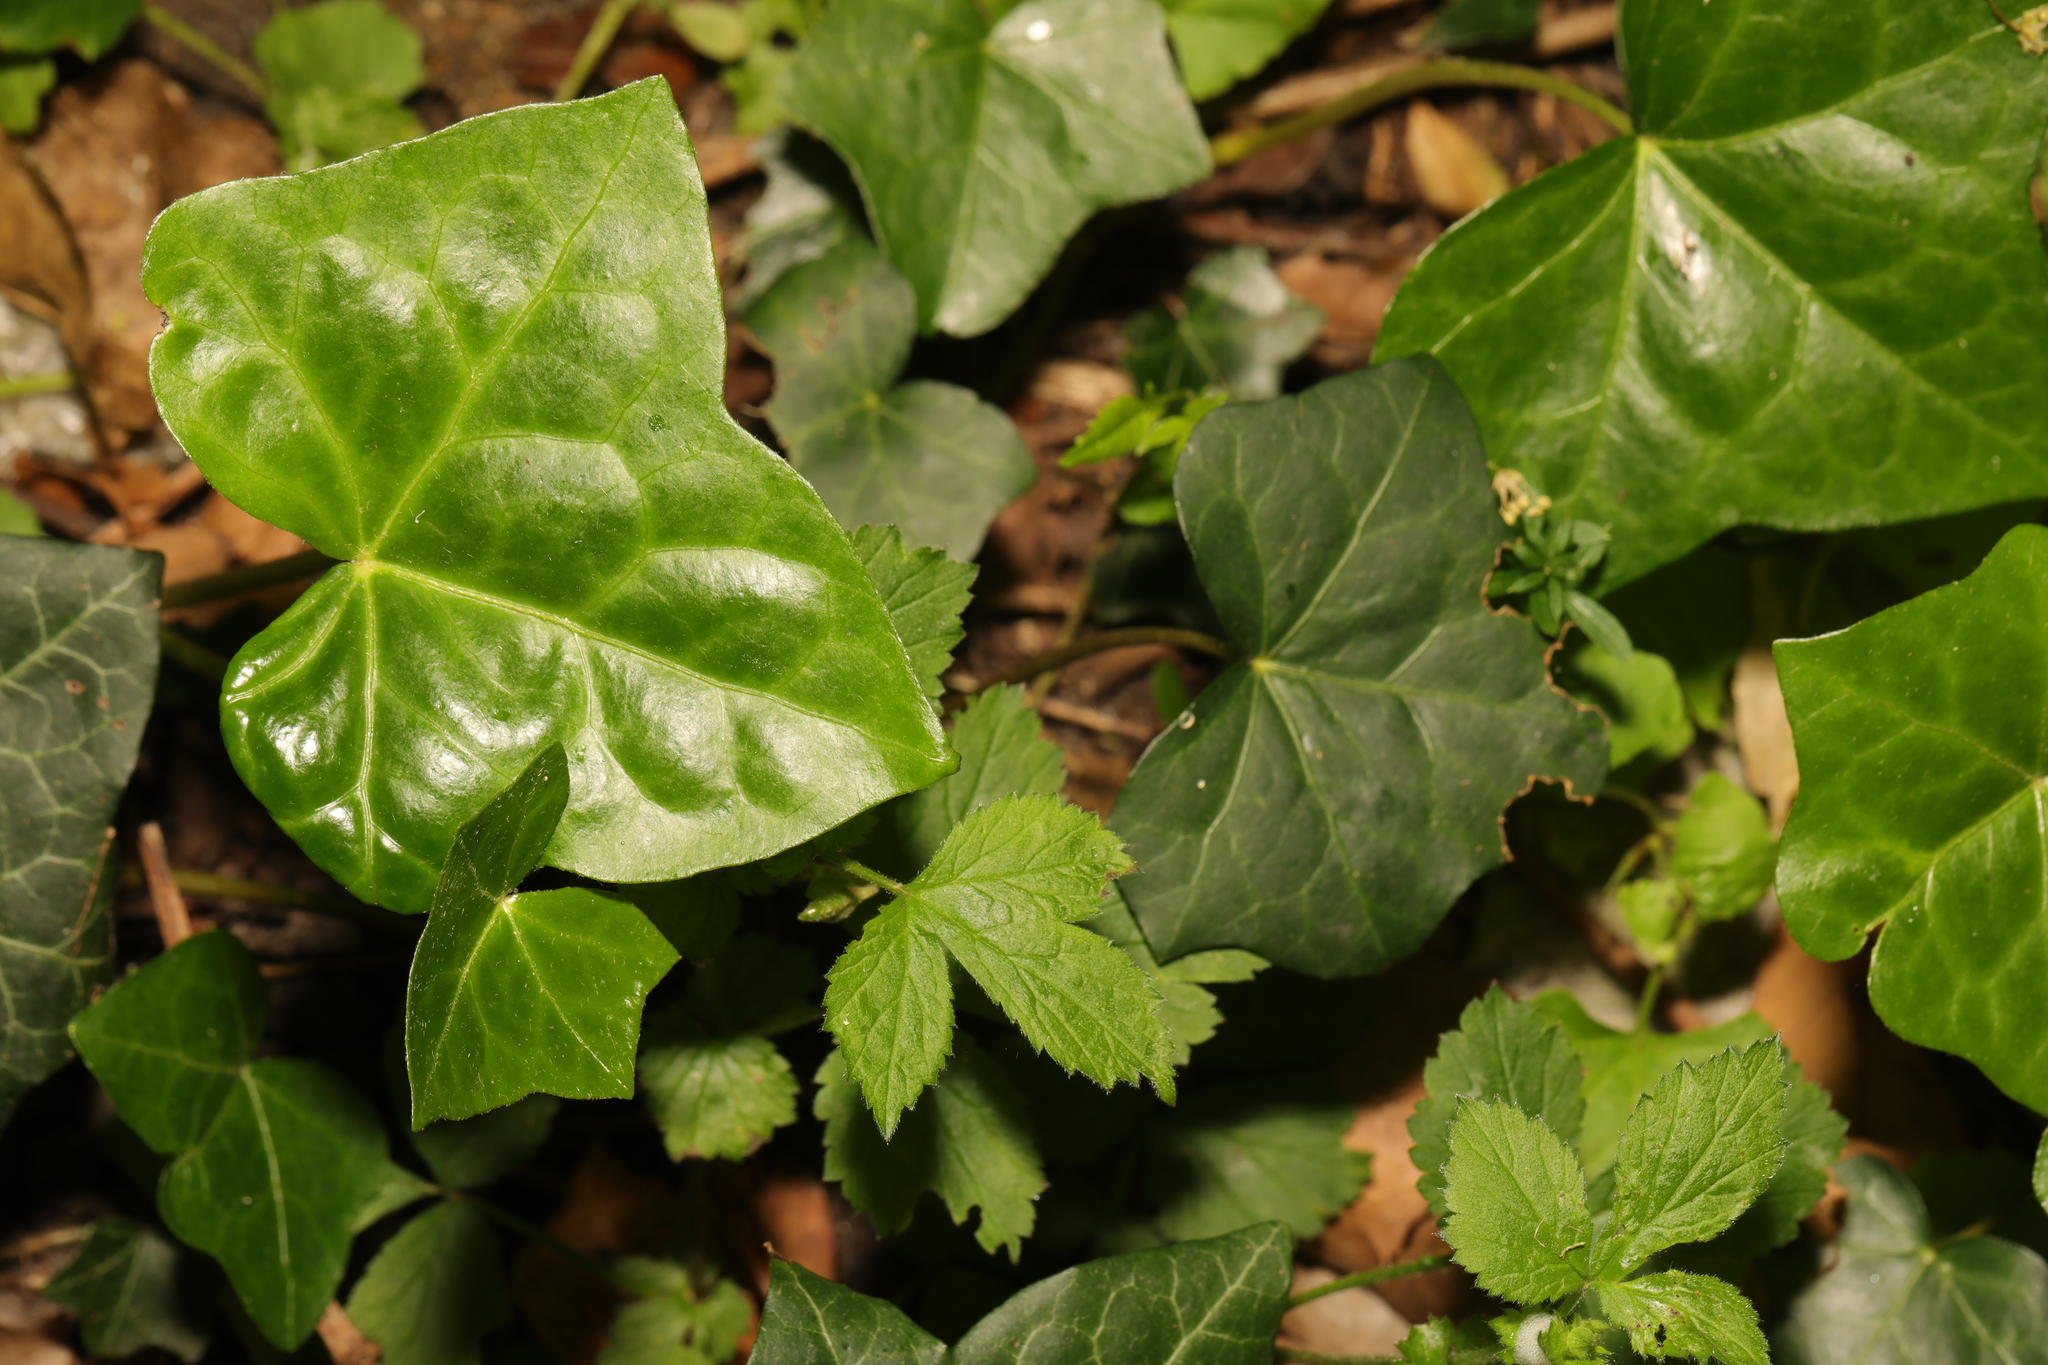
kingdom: Plantae
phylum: Tracheophyta
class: Magnoliopsida
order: Apiales
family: Araliaceae
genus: Hedera
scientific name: Hedera helix
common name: Ivy
